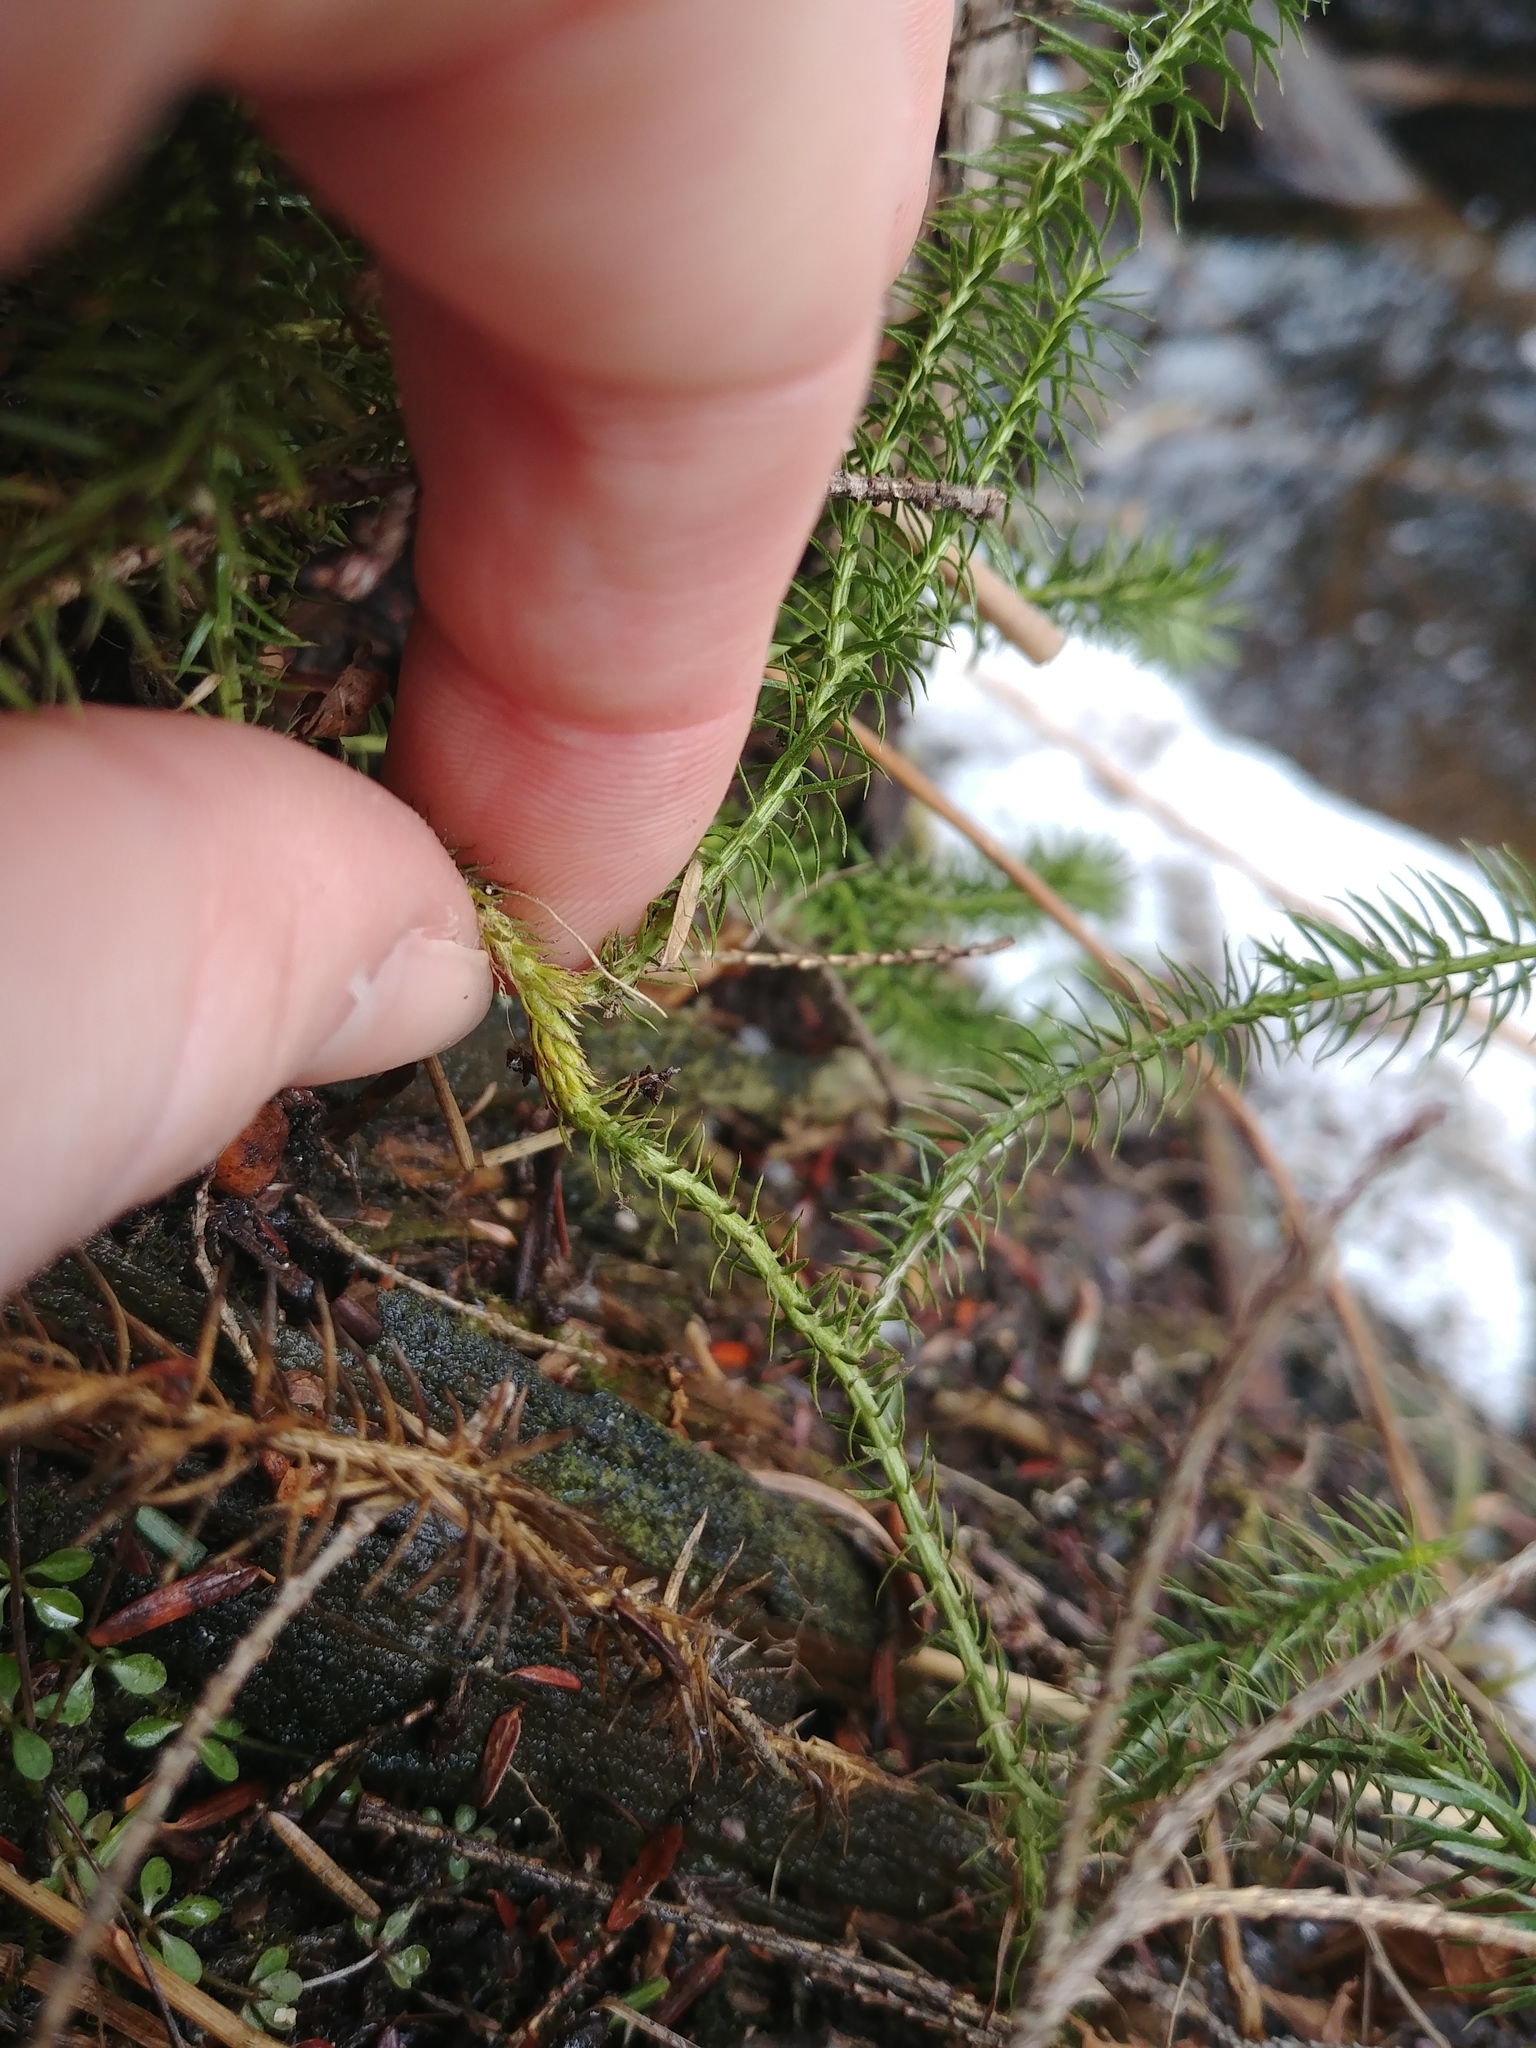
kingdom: Plantae
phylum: Tracheophyta
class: Lycopodiopsida
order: Lycopodiales
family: Lycopodiaceae
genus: Spinulum
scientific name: Spinulum annotinum
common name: Interrupted club-moss
